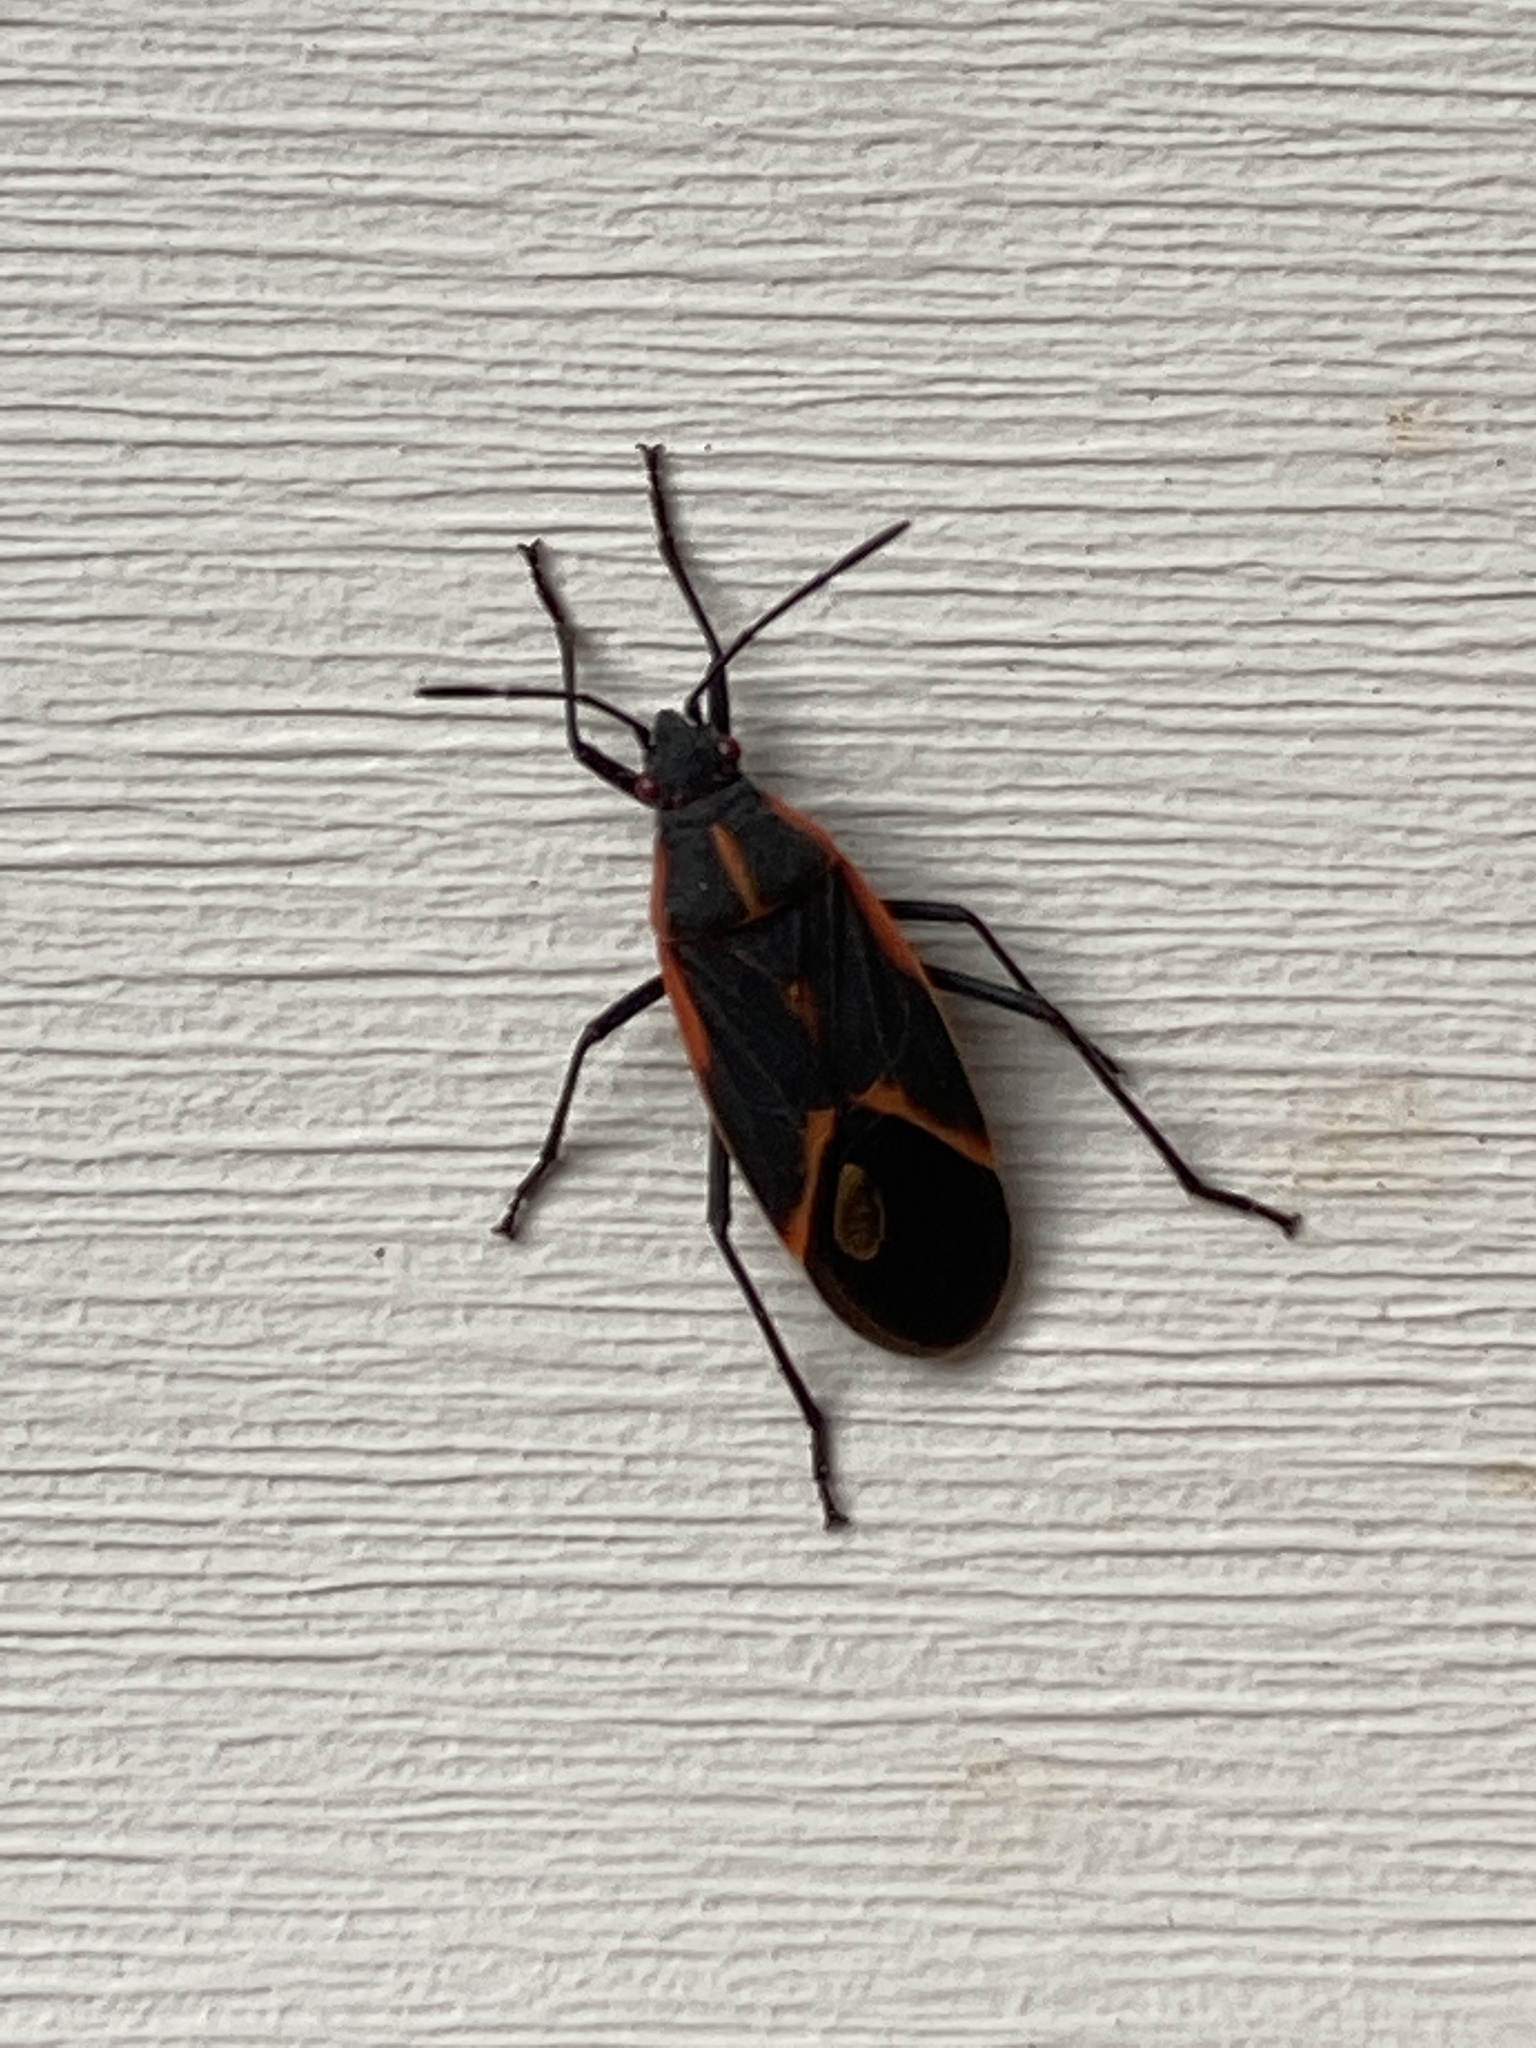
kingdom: Animalia
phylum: Arthropoda
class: Insecta
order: Hemiptera
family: Rhopalidae
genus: Boisea
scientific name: Boisea trivittata
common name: Boxelder bug
